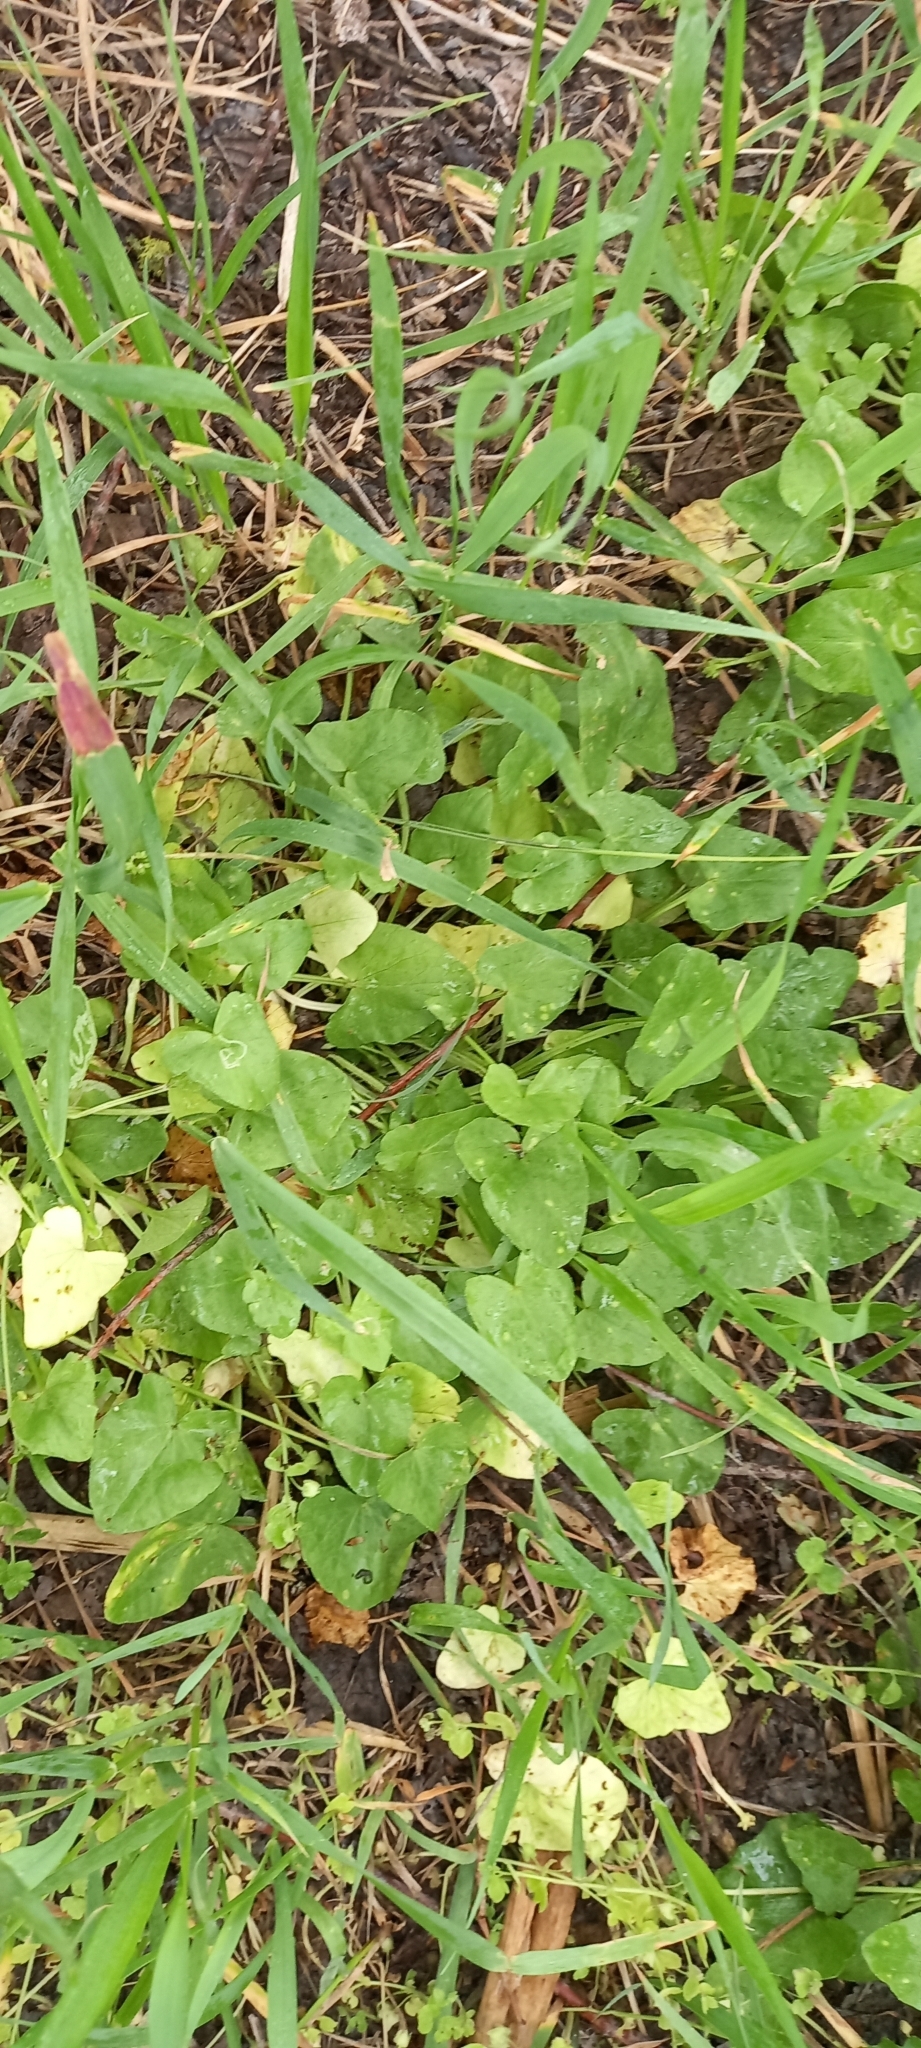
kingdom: Plantae
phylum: Tracheophyta
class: Magnoliopsida
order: Ranunculales
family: Ranunculaceae
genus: Ficaria
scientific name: Ficaria verna
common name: Lesser celandine
